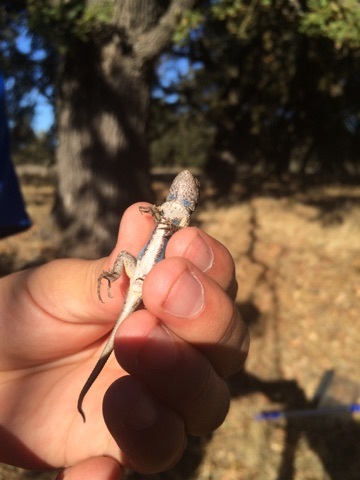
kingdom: Animalia
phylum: Chordata
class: Squamata
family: Phrynosomatidae
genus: Sceloporus
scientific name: Sceloporus occidentalis
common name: Western fence lizard
